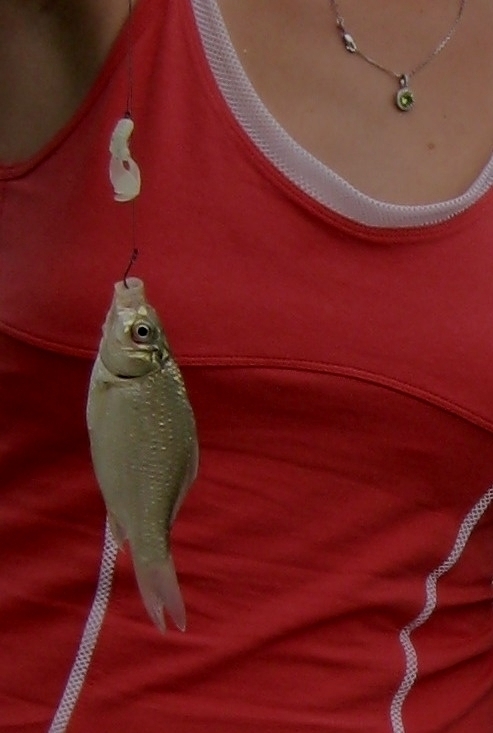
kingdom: Animalia
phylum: Chordata
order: Cypriniformes
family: Cyprinidae
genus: Carassius
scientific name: Carassius gibelio
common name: Prussian carp
